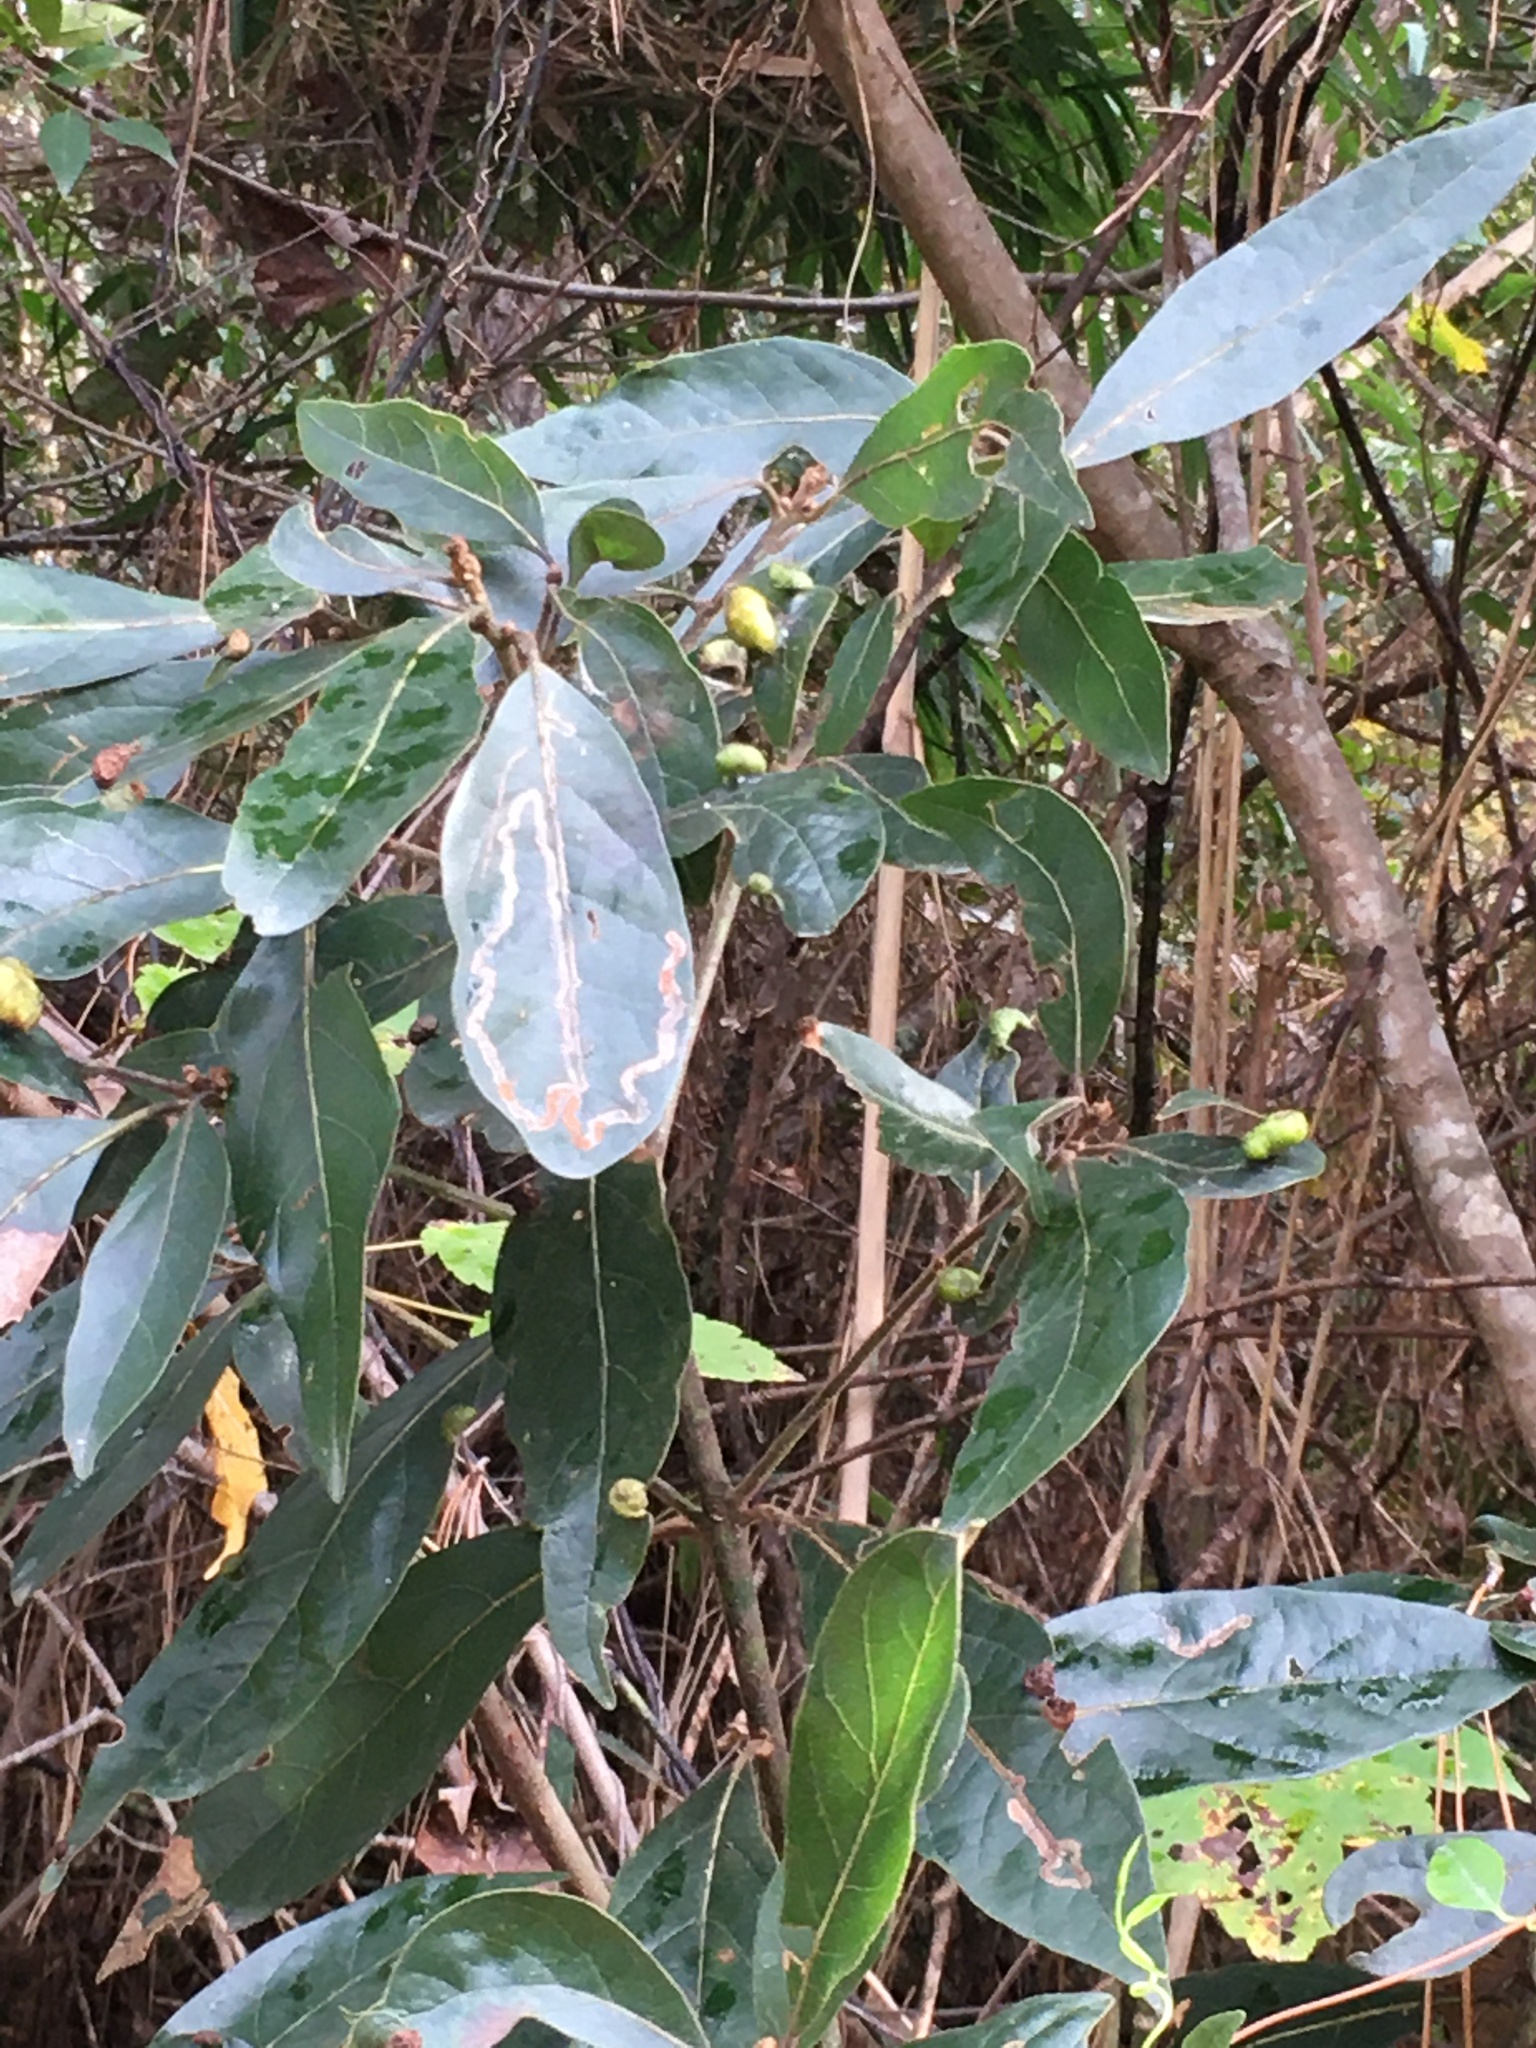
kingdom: Animalia
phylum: Arthropoda
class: Insecta
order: Hemiptera
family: Triozidae
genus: Trioza
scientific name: Trioza magnoliae
